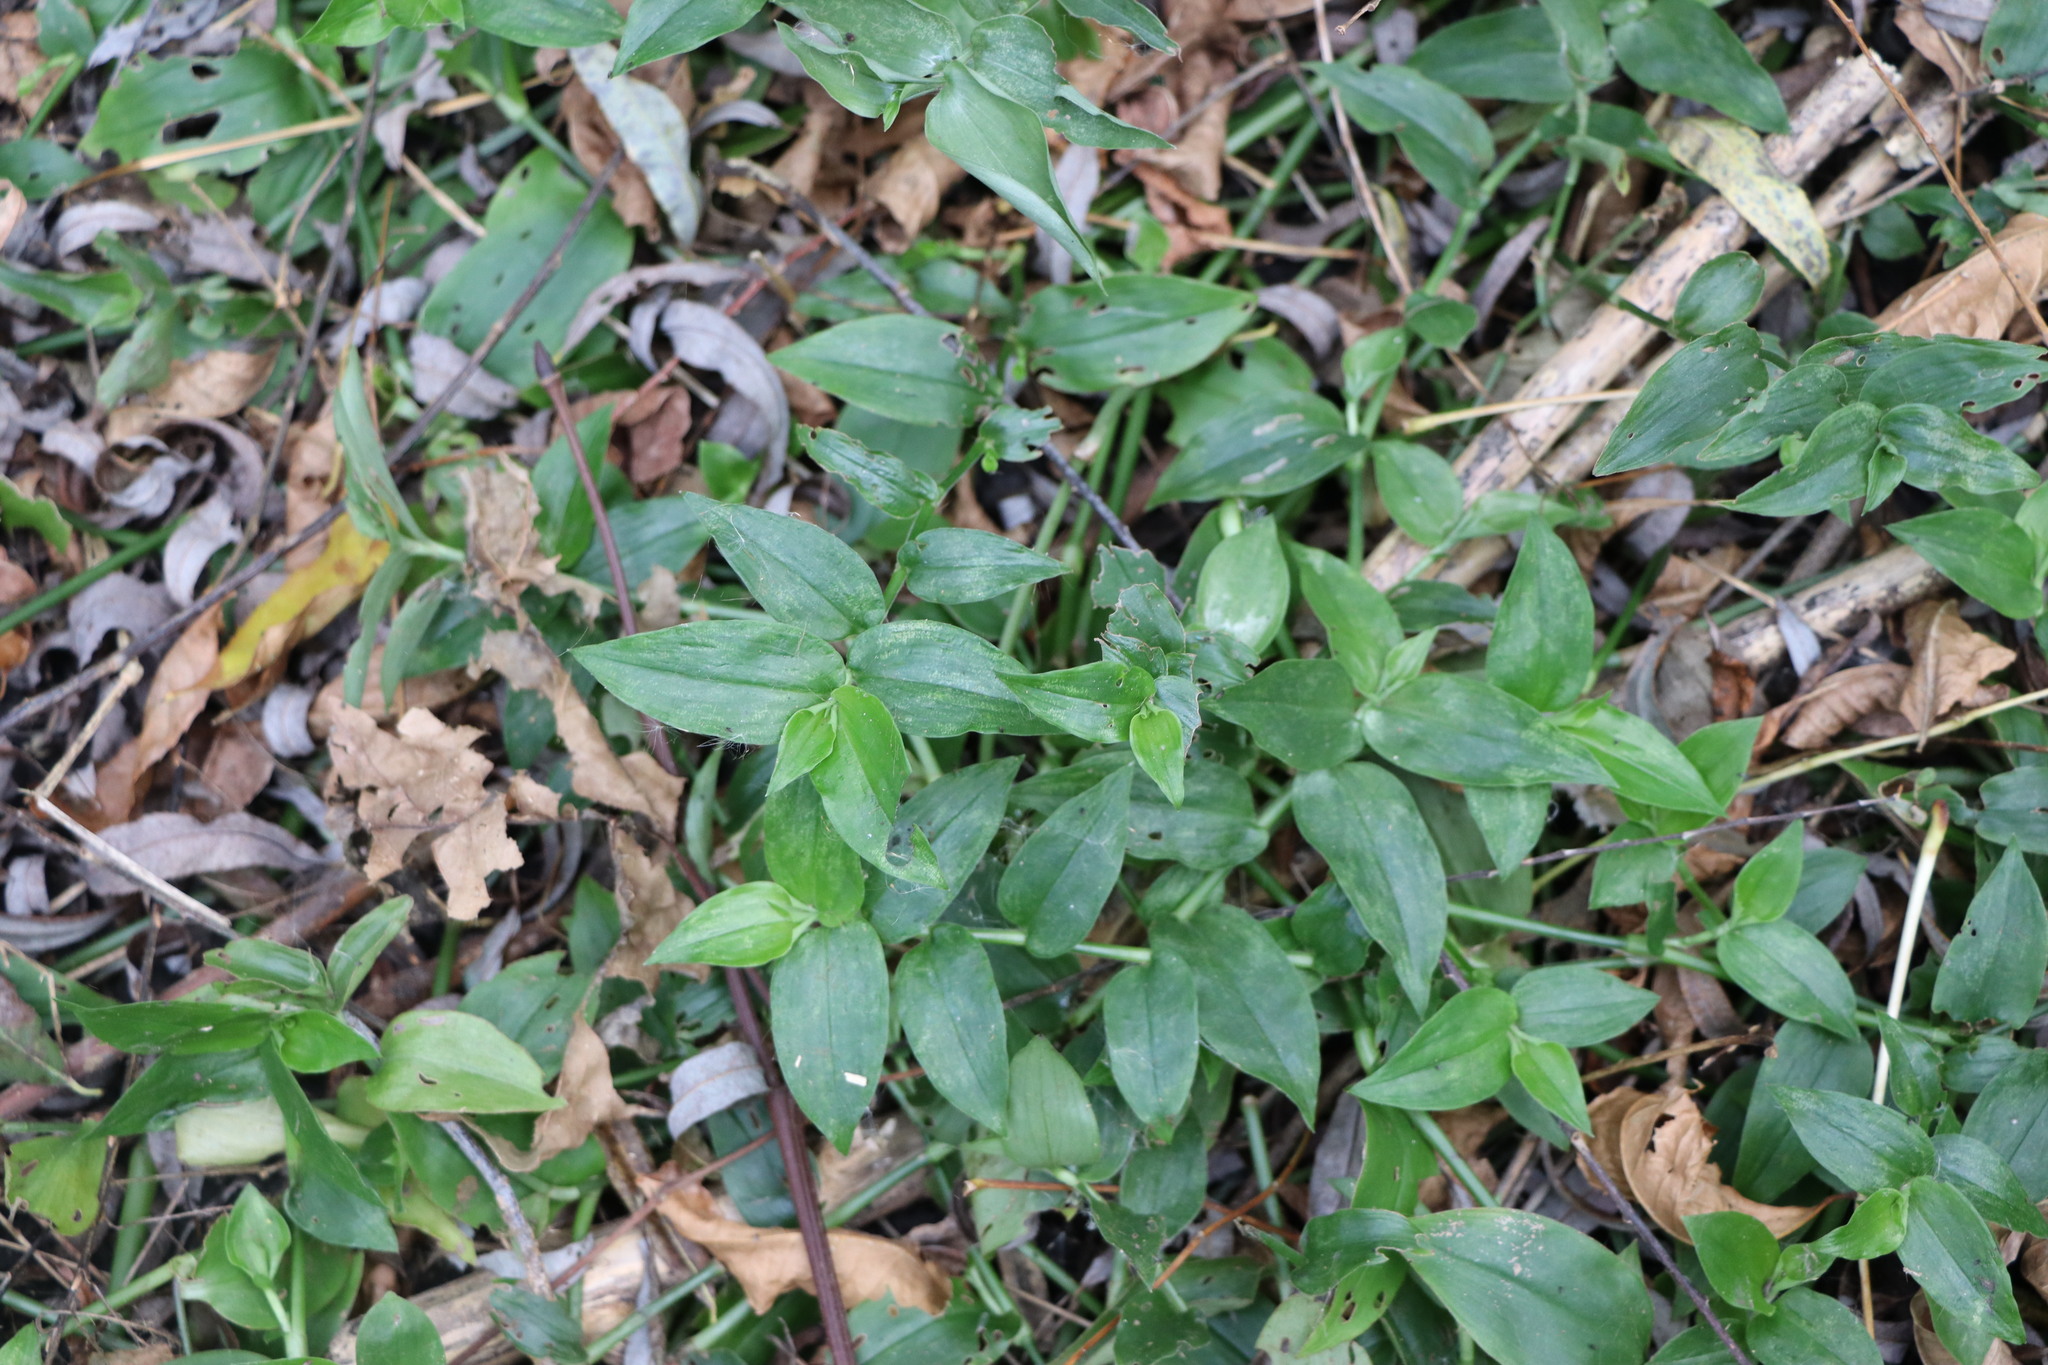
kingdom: Plantae
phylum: Tracheophyta
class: Liliopsida
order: Commelinales
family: Commelinaceae
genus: Tradescantia
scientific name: Tradescantia fluminensis
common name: Wandering-jew
